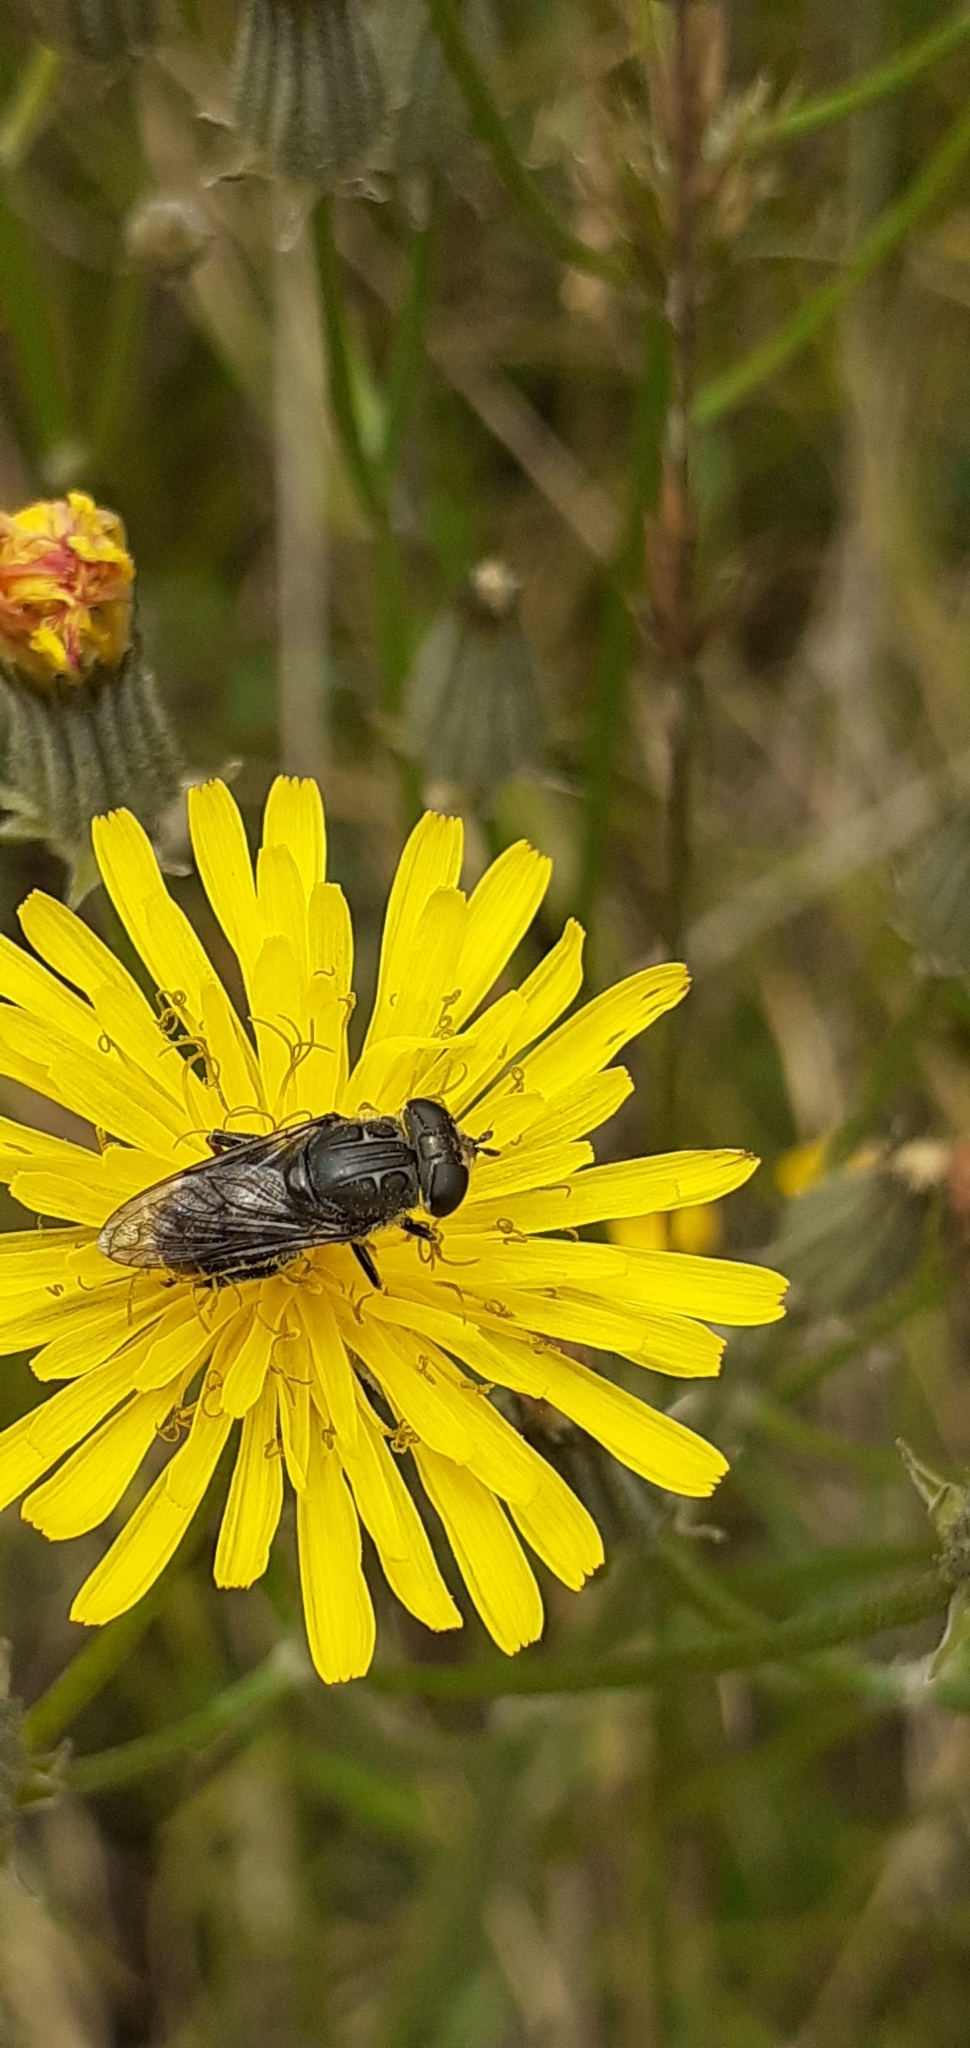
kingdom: Animalia
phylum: Arthropoda
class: Insecta
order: Diptera
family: Syrphidae
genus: Asemosyrphus
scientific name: Asemosyrphus
